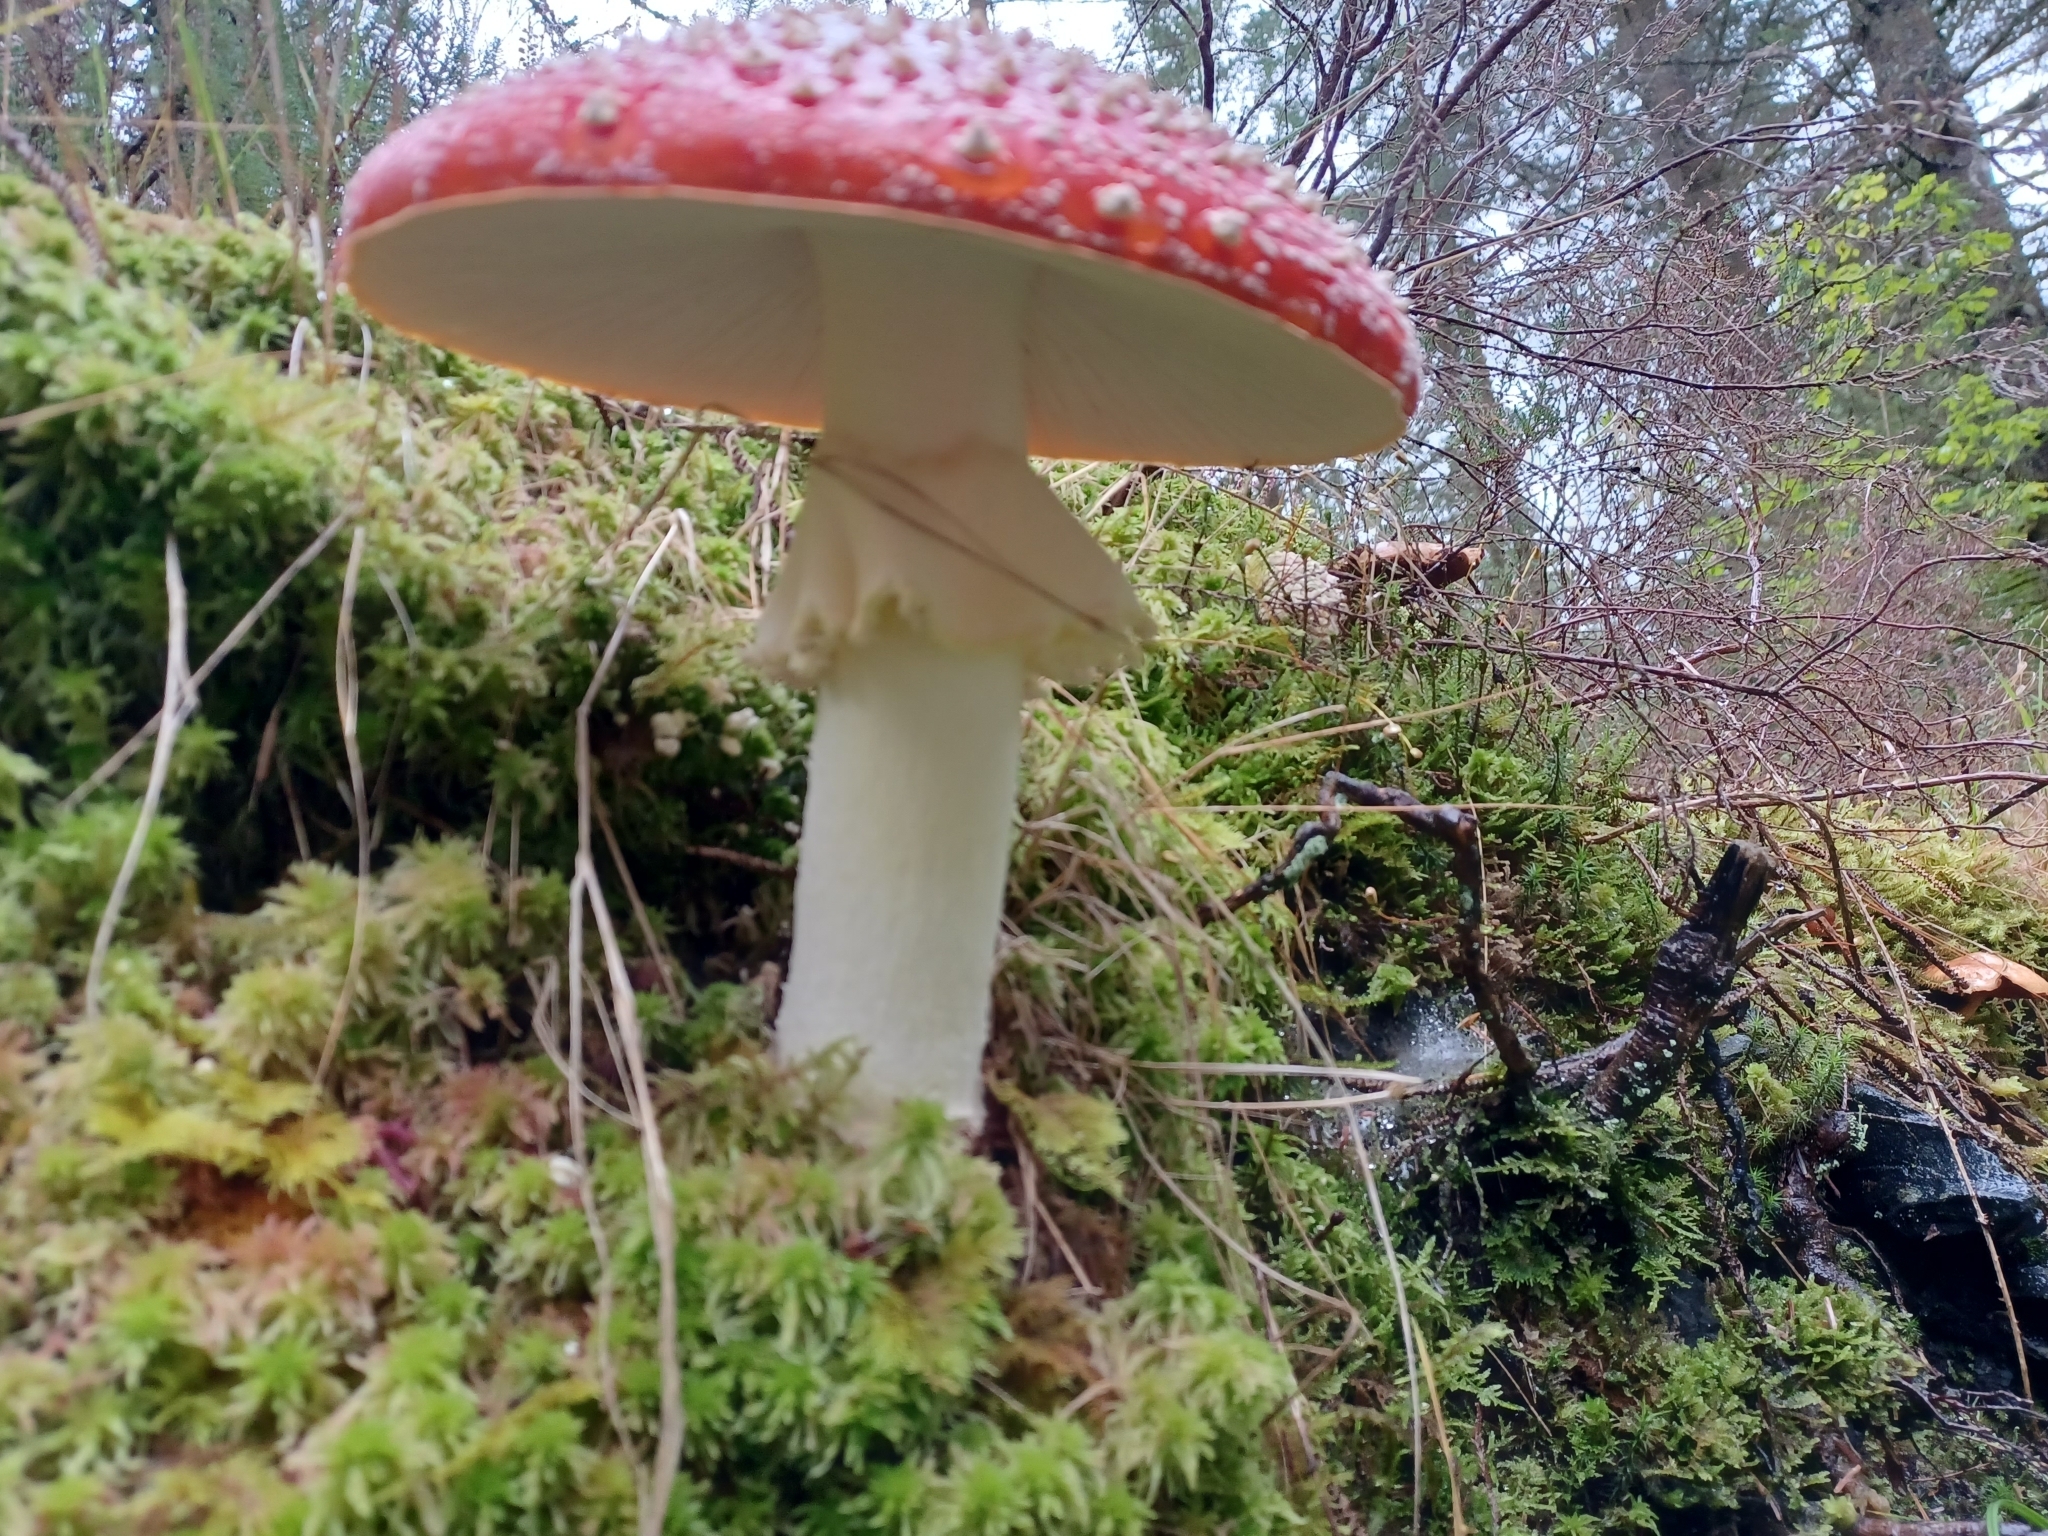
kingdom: Fungi
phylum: Basidiomycota
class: Agaricomycetes
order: Agaricales
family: Amanitaceae
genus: Amanita
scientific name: Amanita muscaria
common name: Fly agaric
